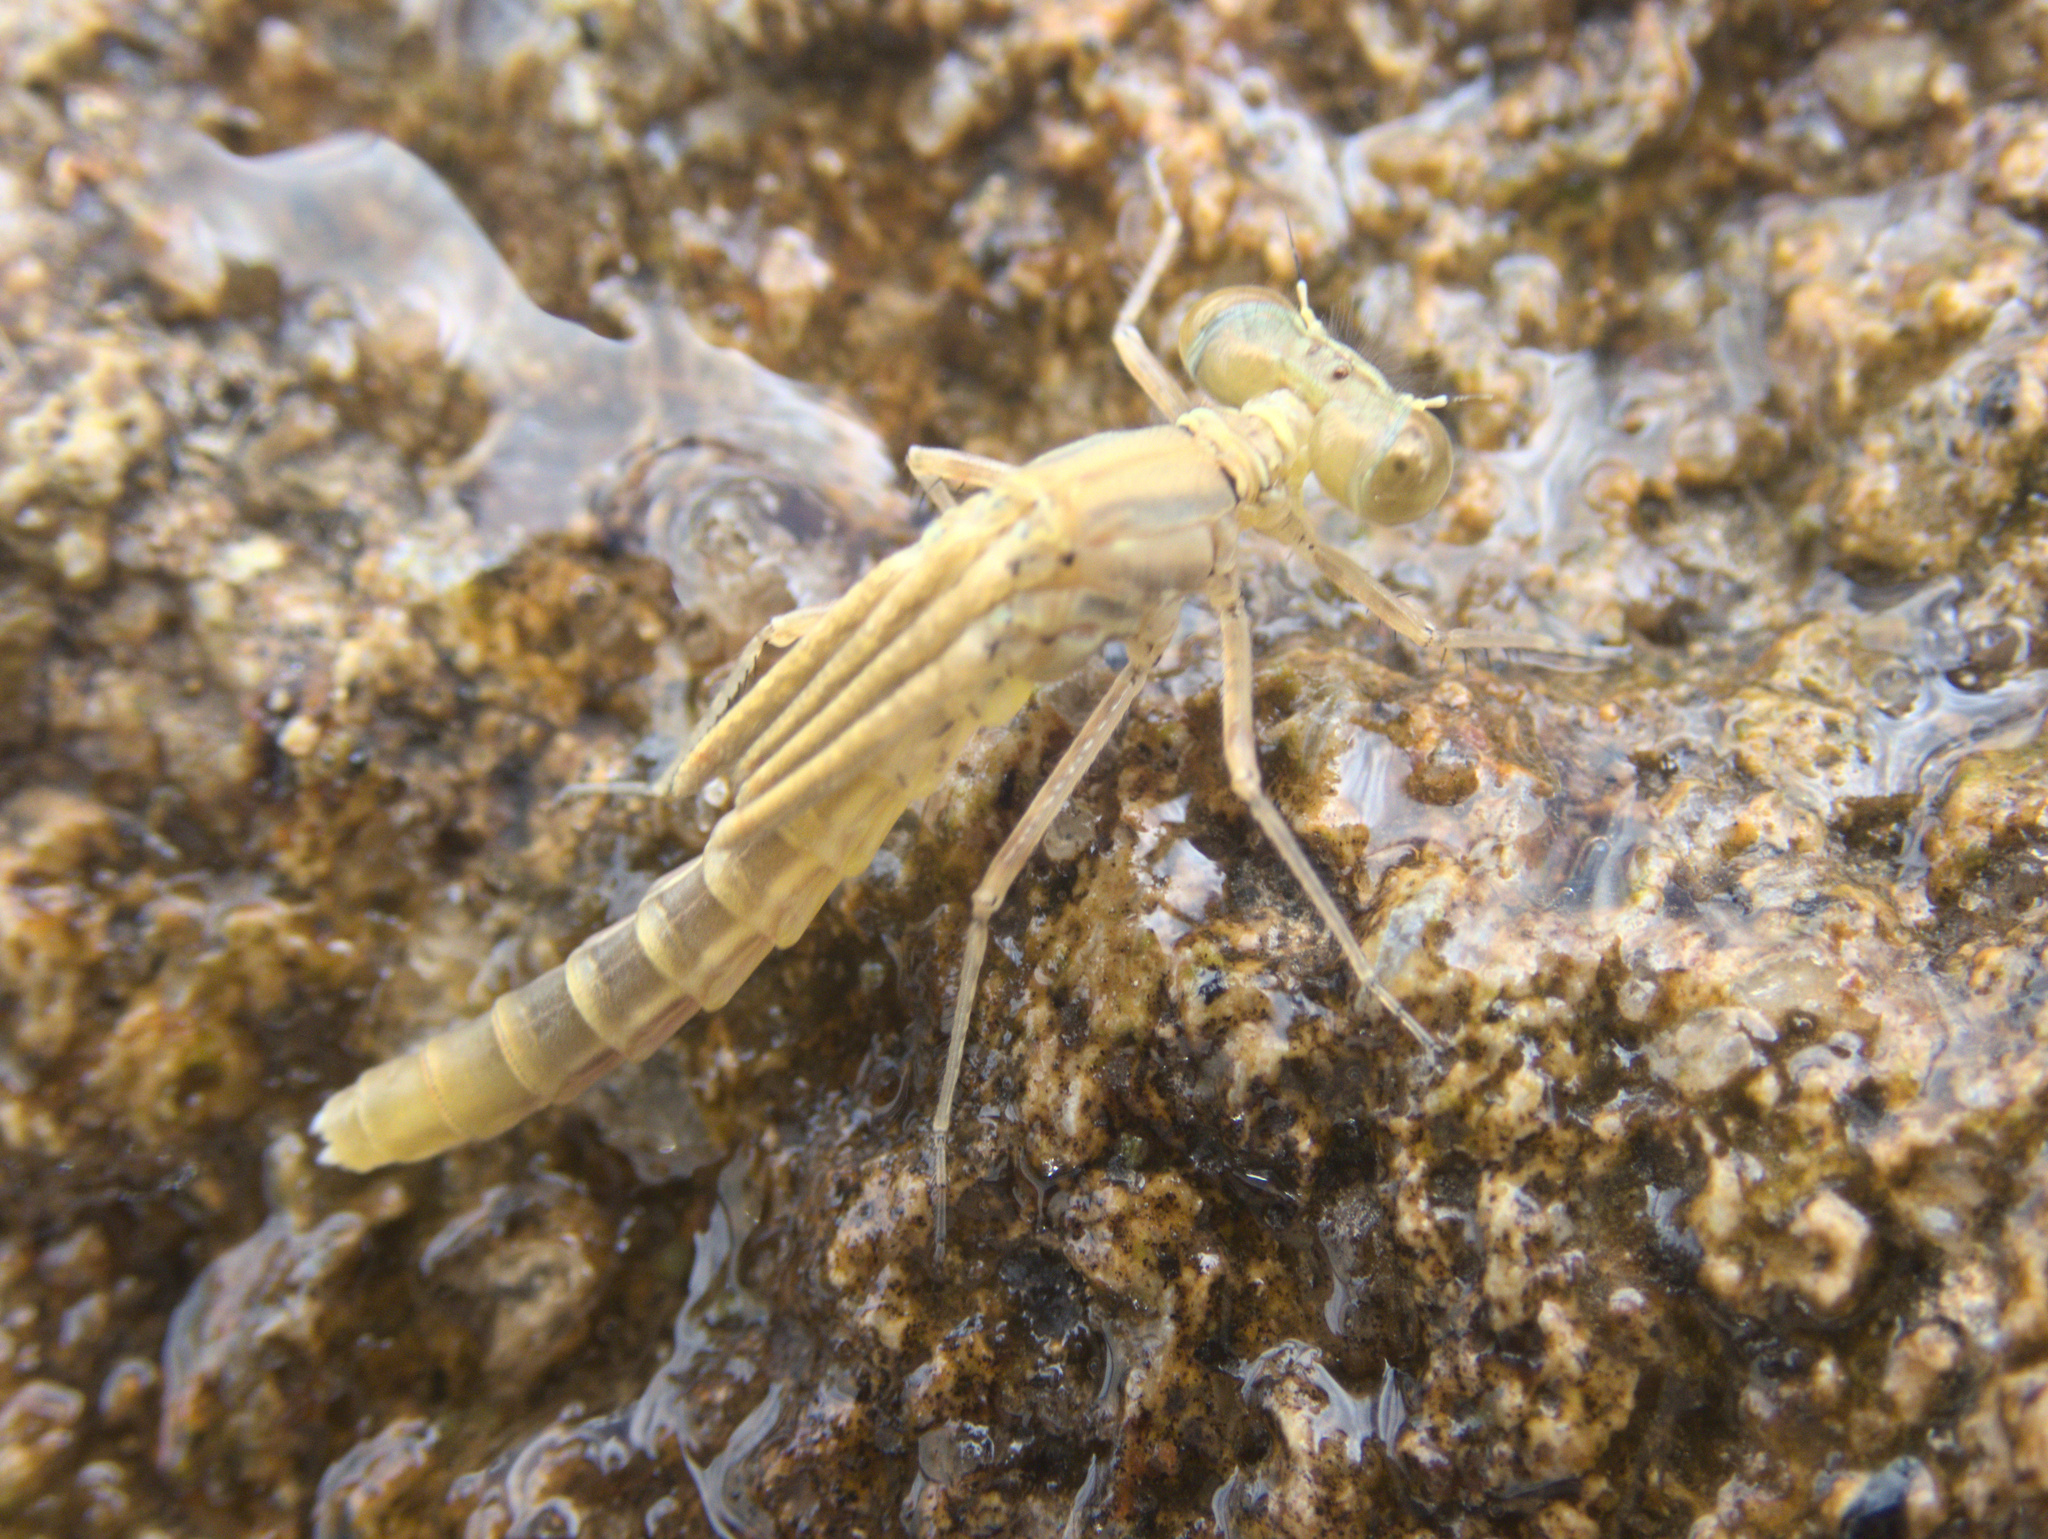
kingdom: Animalia
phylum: Arthropoda
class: Insecta
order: Odonata
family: Coenagrionidae
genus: Xanthocnemis
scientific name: Xanthocnemis zealandica
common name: Common redcoat damselfly
